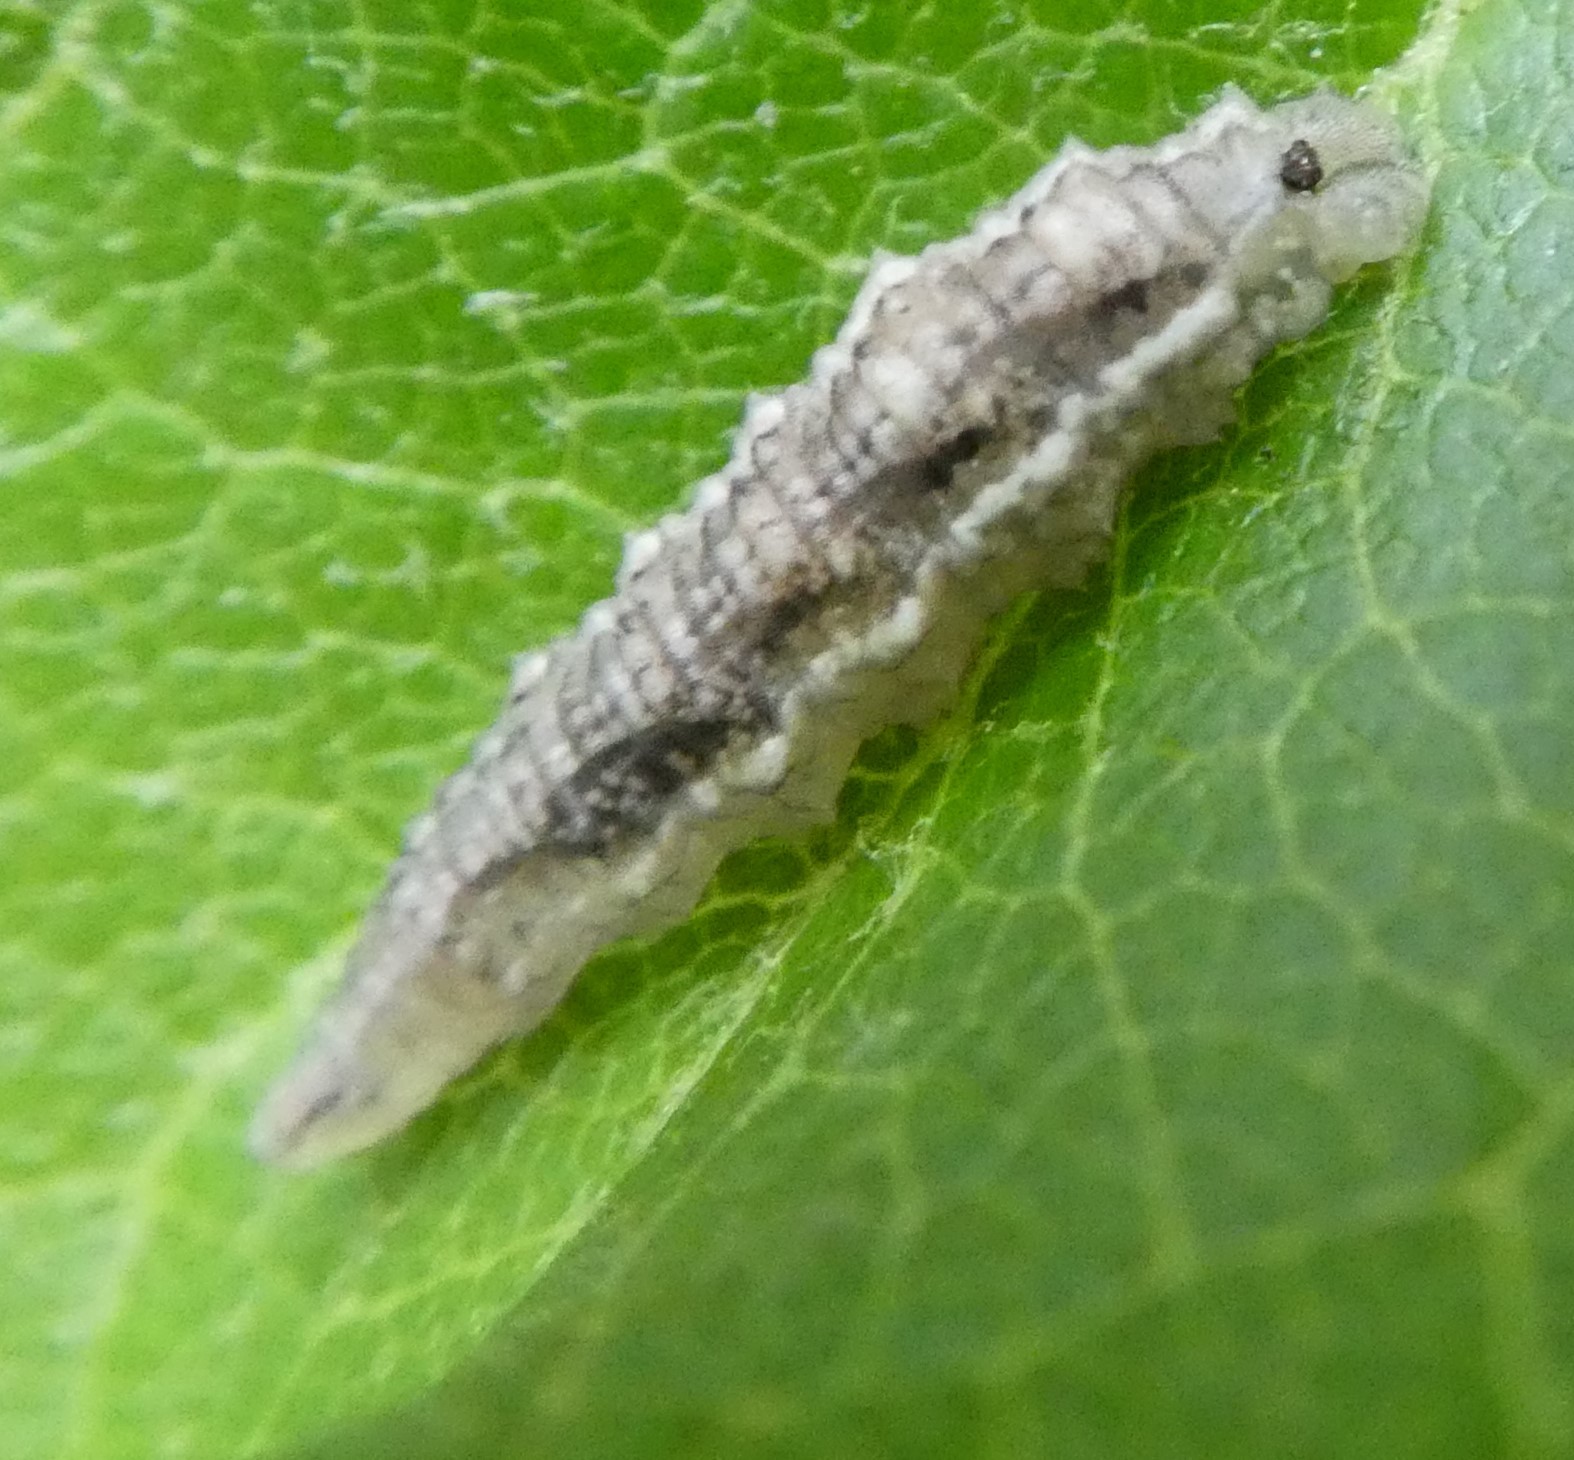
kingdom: Animalia
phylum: Arthropoda
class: Insecta
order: Diptera
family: Syrphidae
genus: Eupeodes
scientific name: Eupeodes
